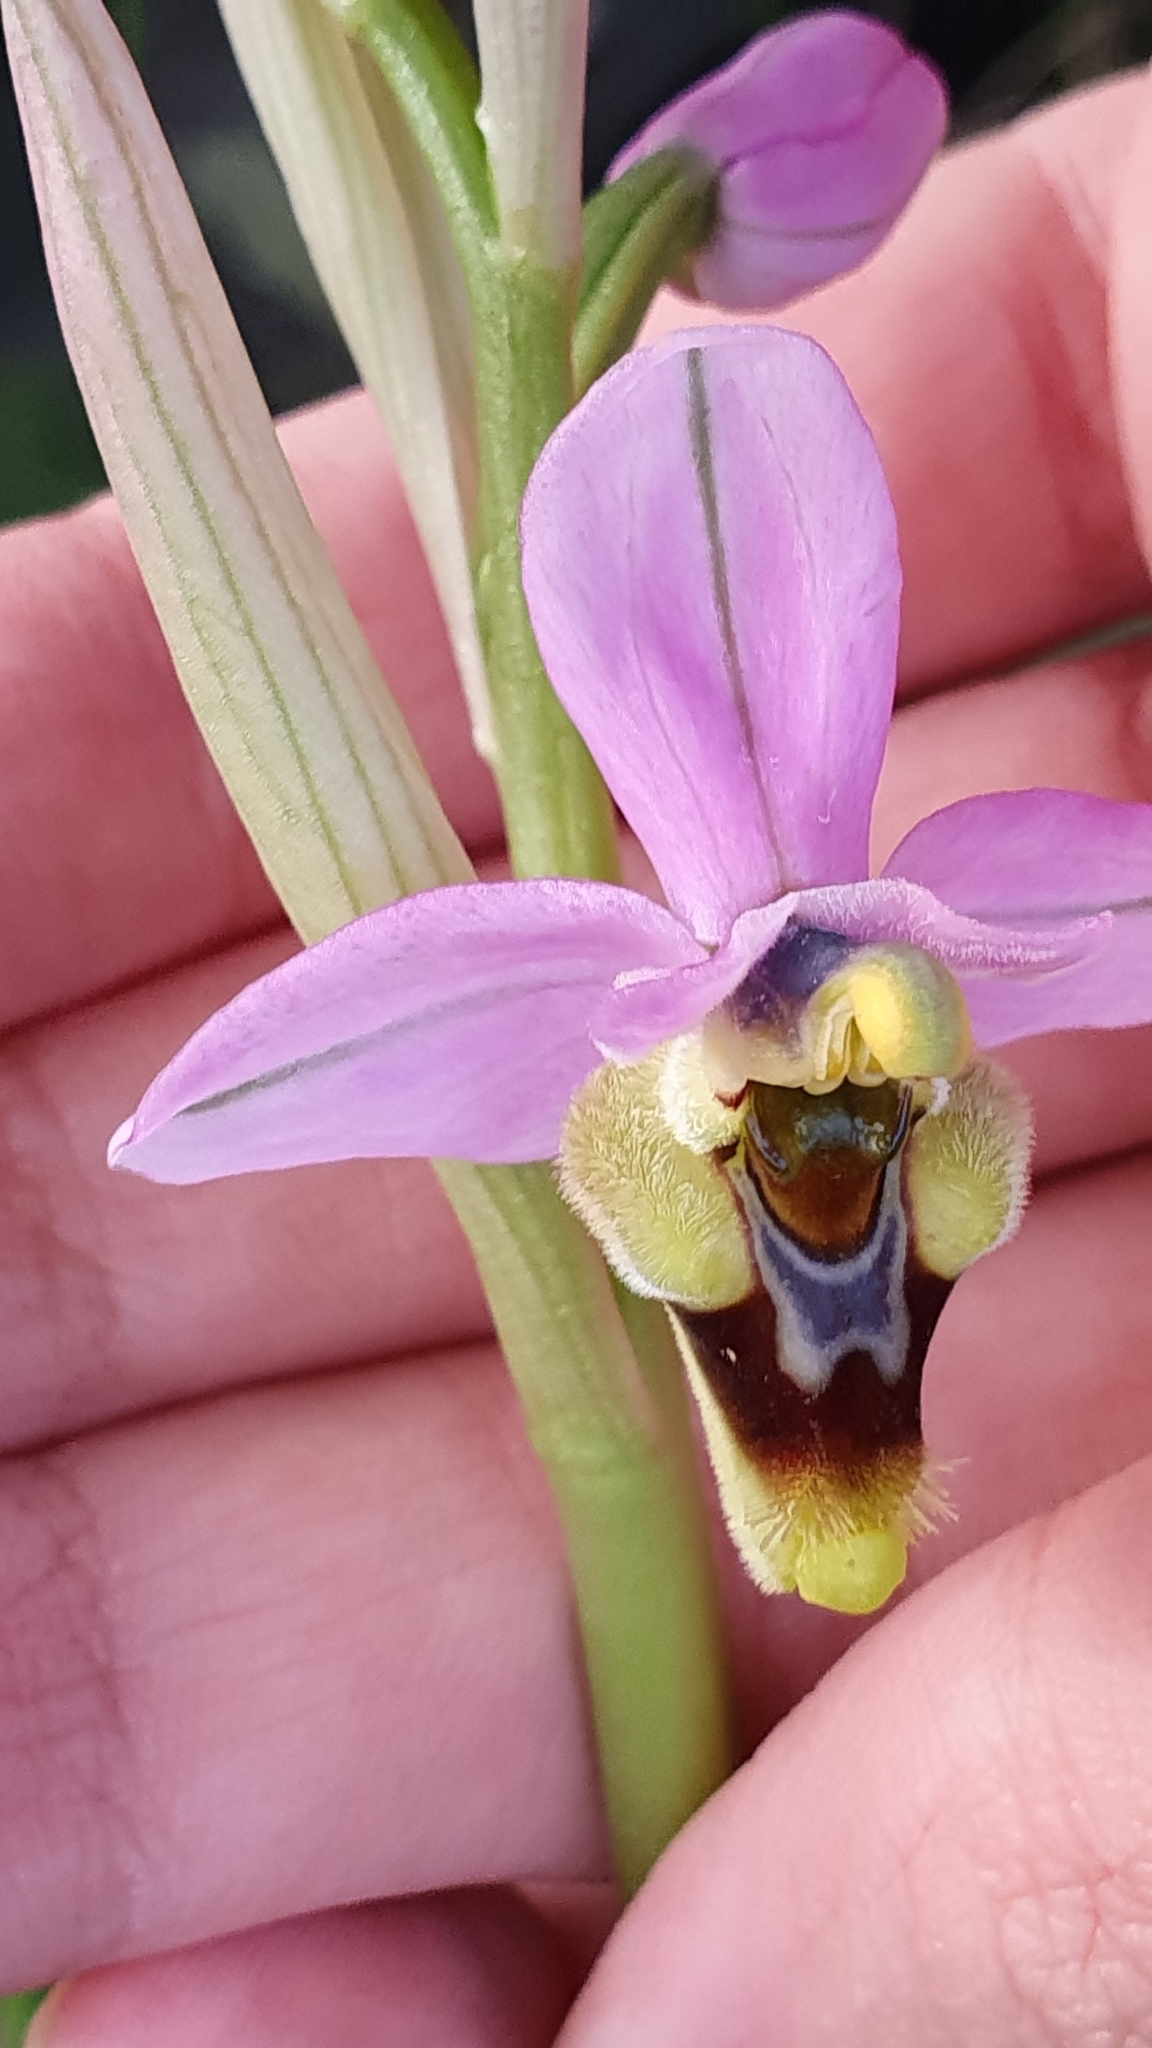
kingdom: Plantae
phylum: Tracheophyta
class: Liliopsida
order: Asparagales
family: Orchidaceae
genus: Ophrys
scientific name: Ophrys tenthredinifera
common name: Sawfly orchid
